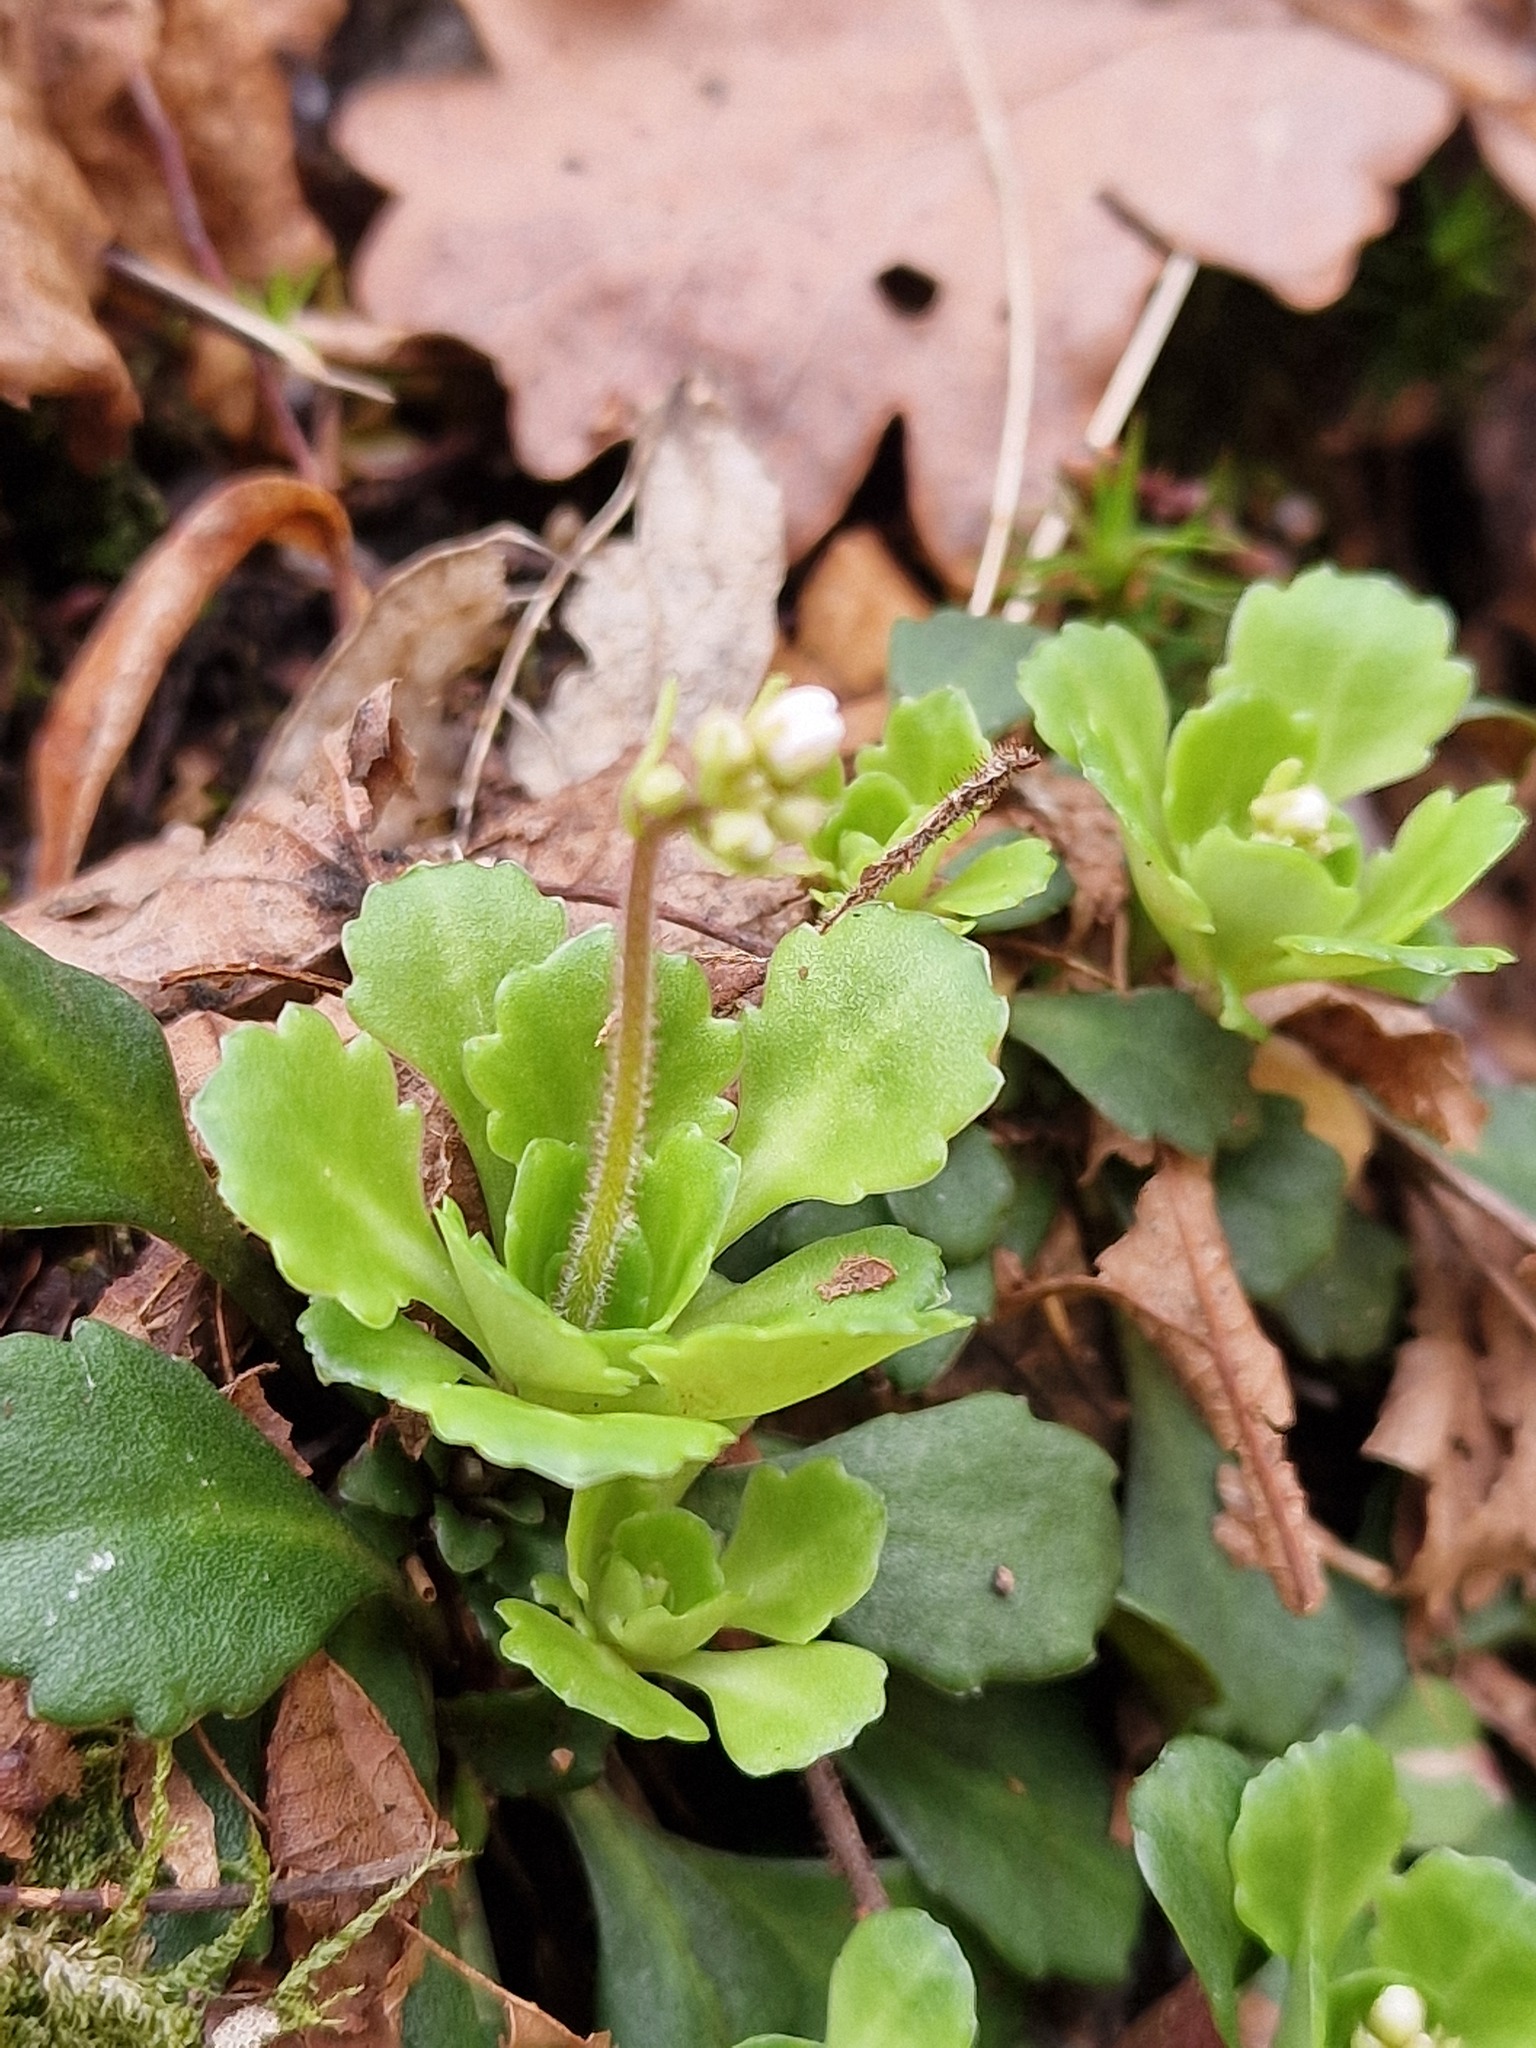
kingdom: Plantae
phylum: Tracheophyta
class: Magnoliopsida
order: Saxifragales
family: Saxifragaceae
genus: Saxifraga
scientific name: Saxifraga cuneifolia
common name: Lesser londonpride
